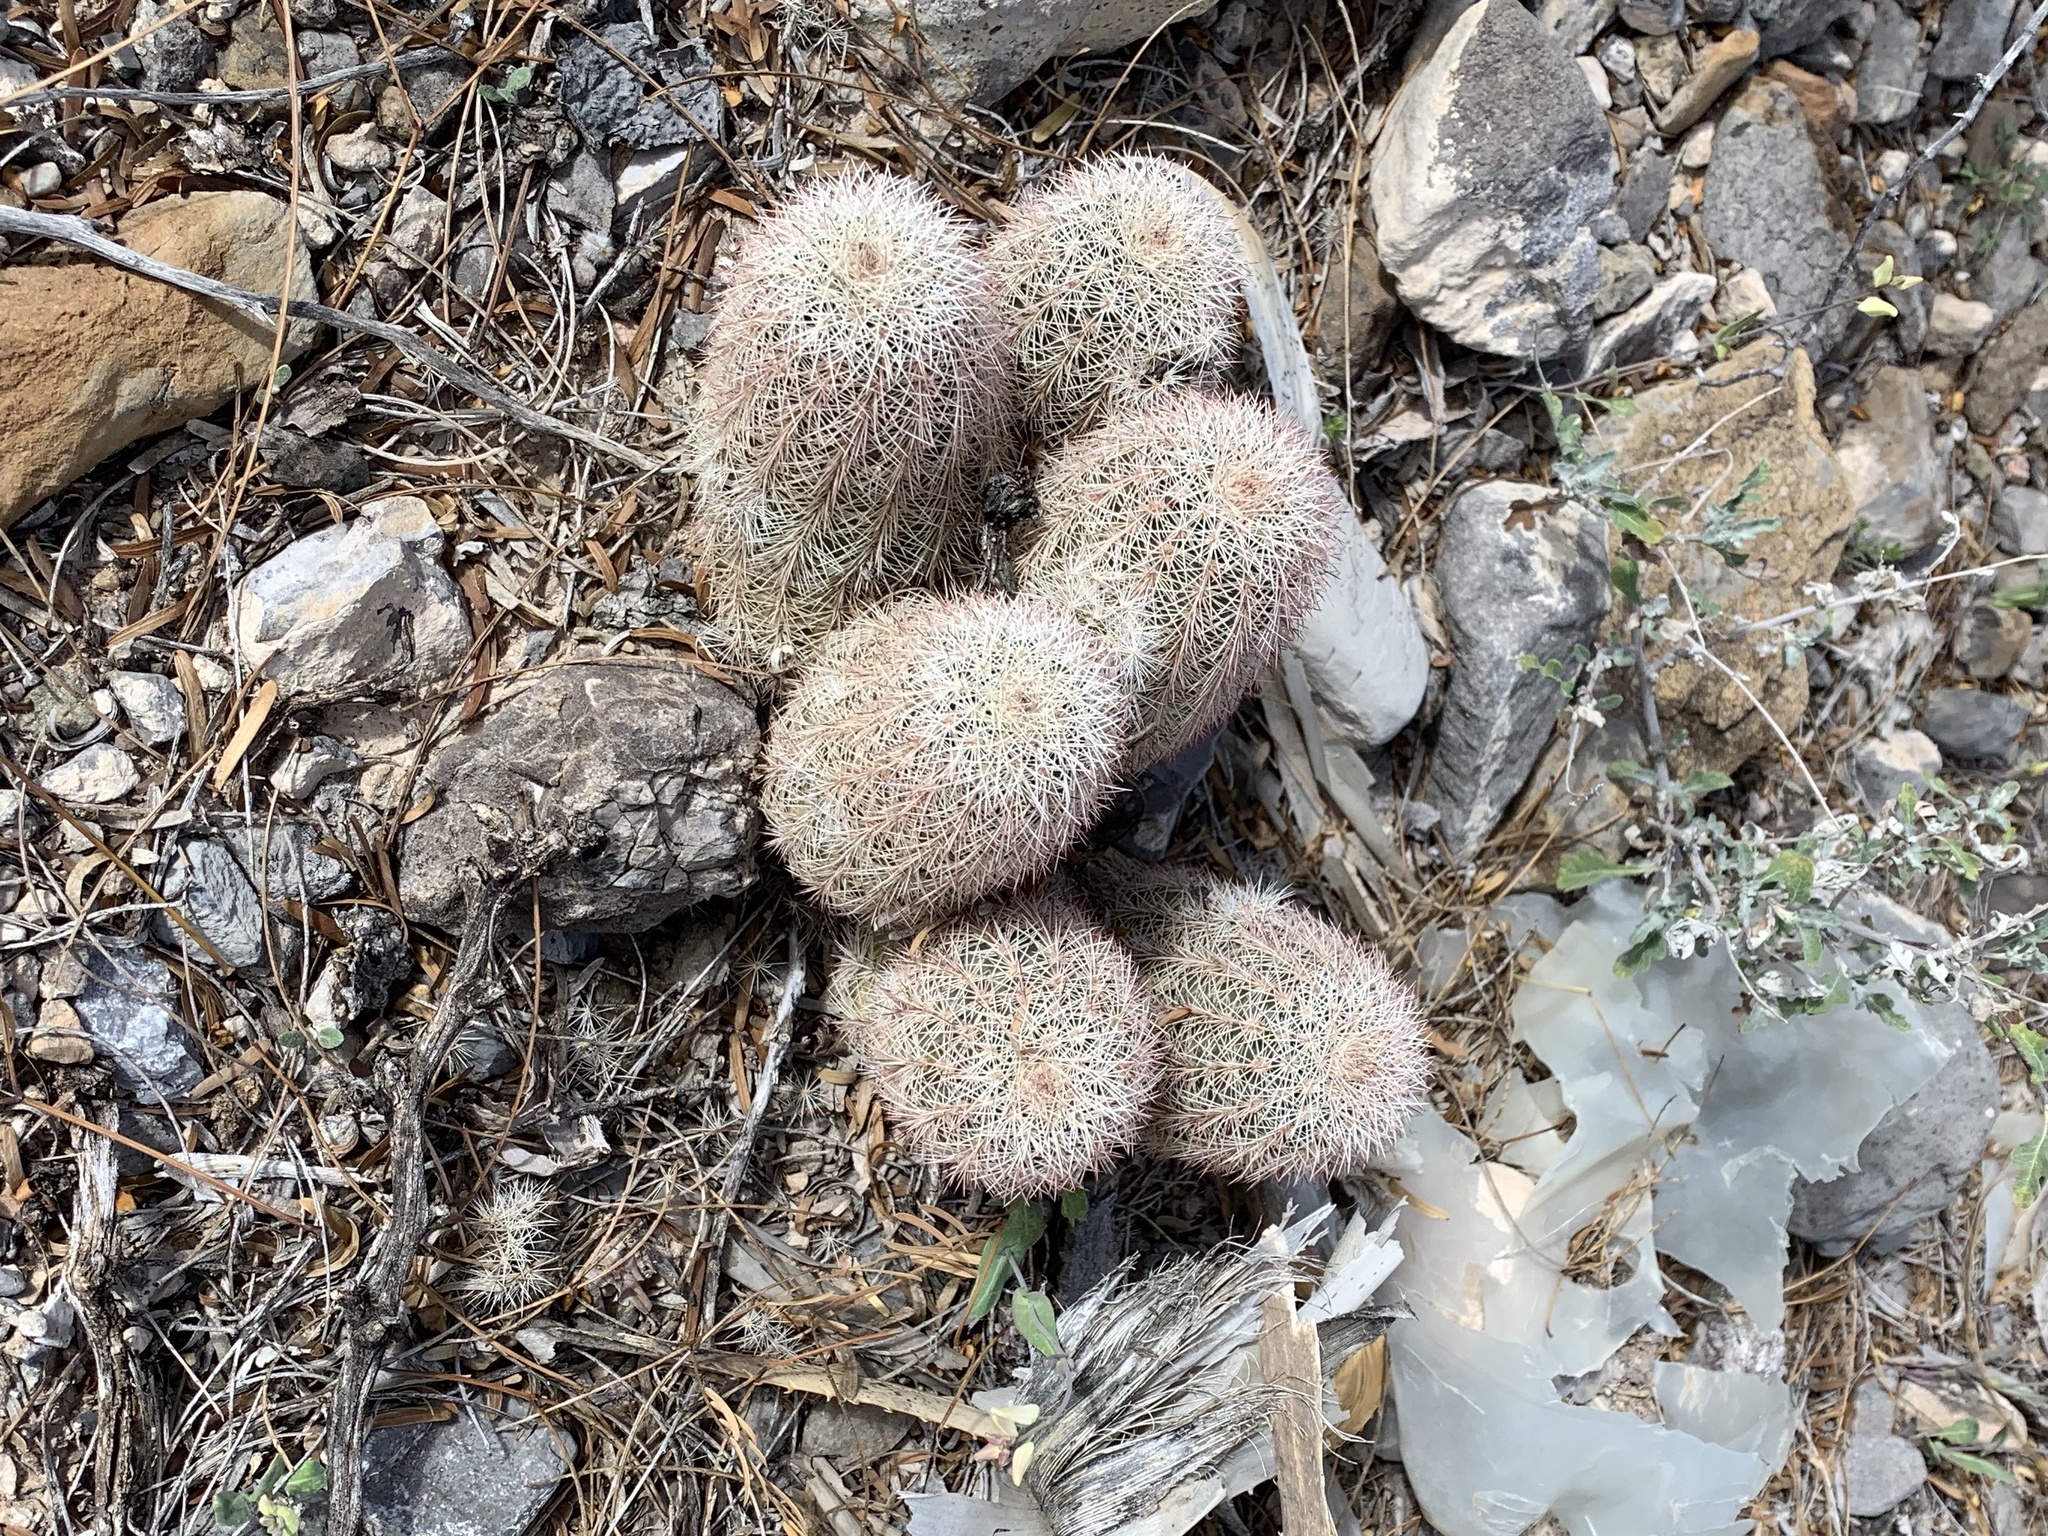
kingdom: Plantae
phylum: Tracheophyta
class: Magnoliopsida
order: Caryophyllales
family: Cactaceae
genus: Echinocereus
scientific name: Echinocereus dasyacanthus
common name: Spiny hedgehog cactus
